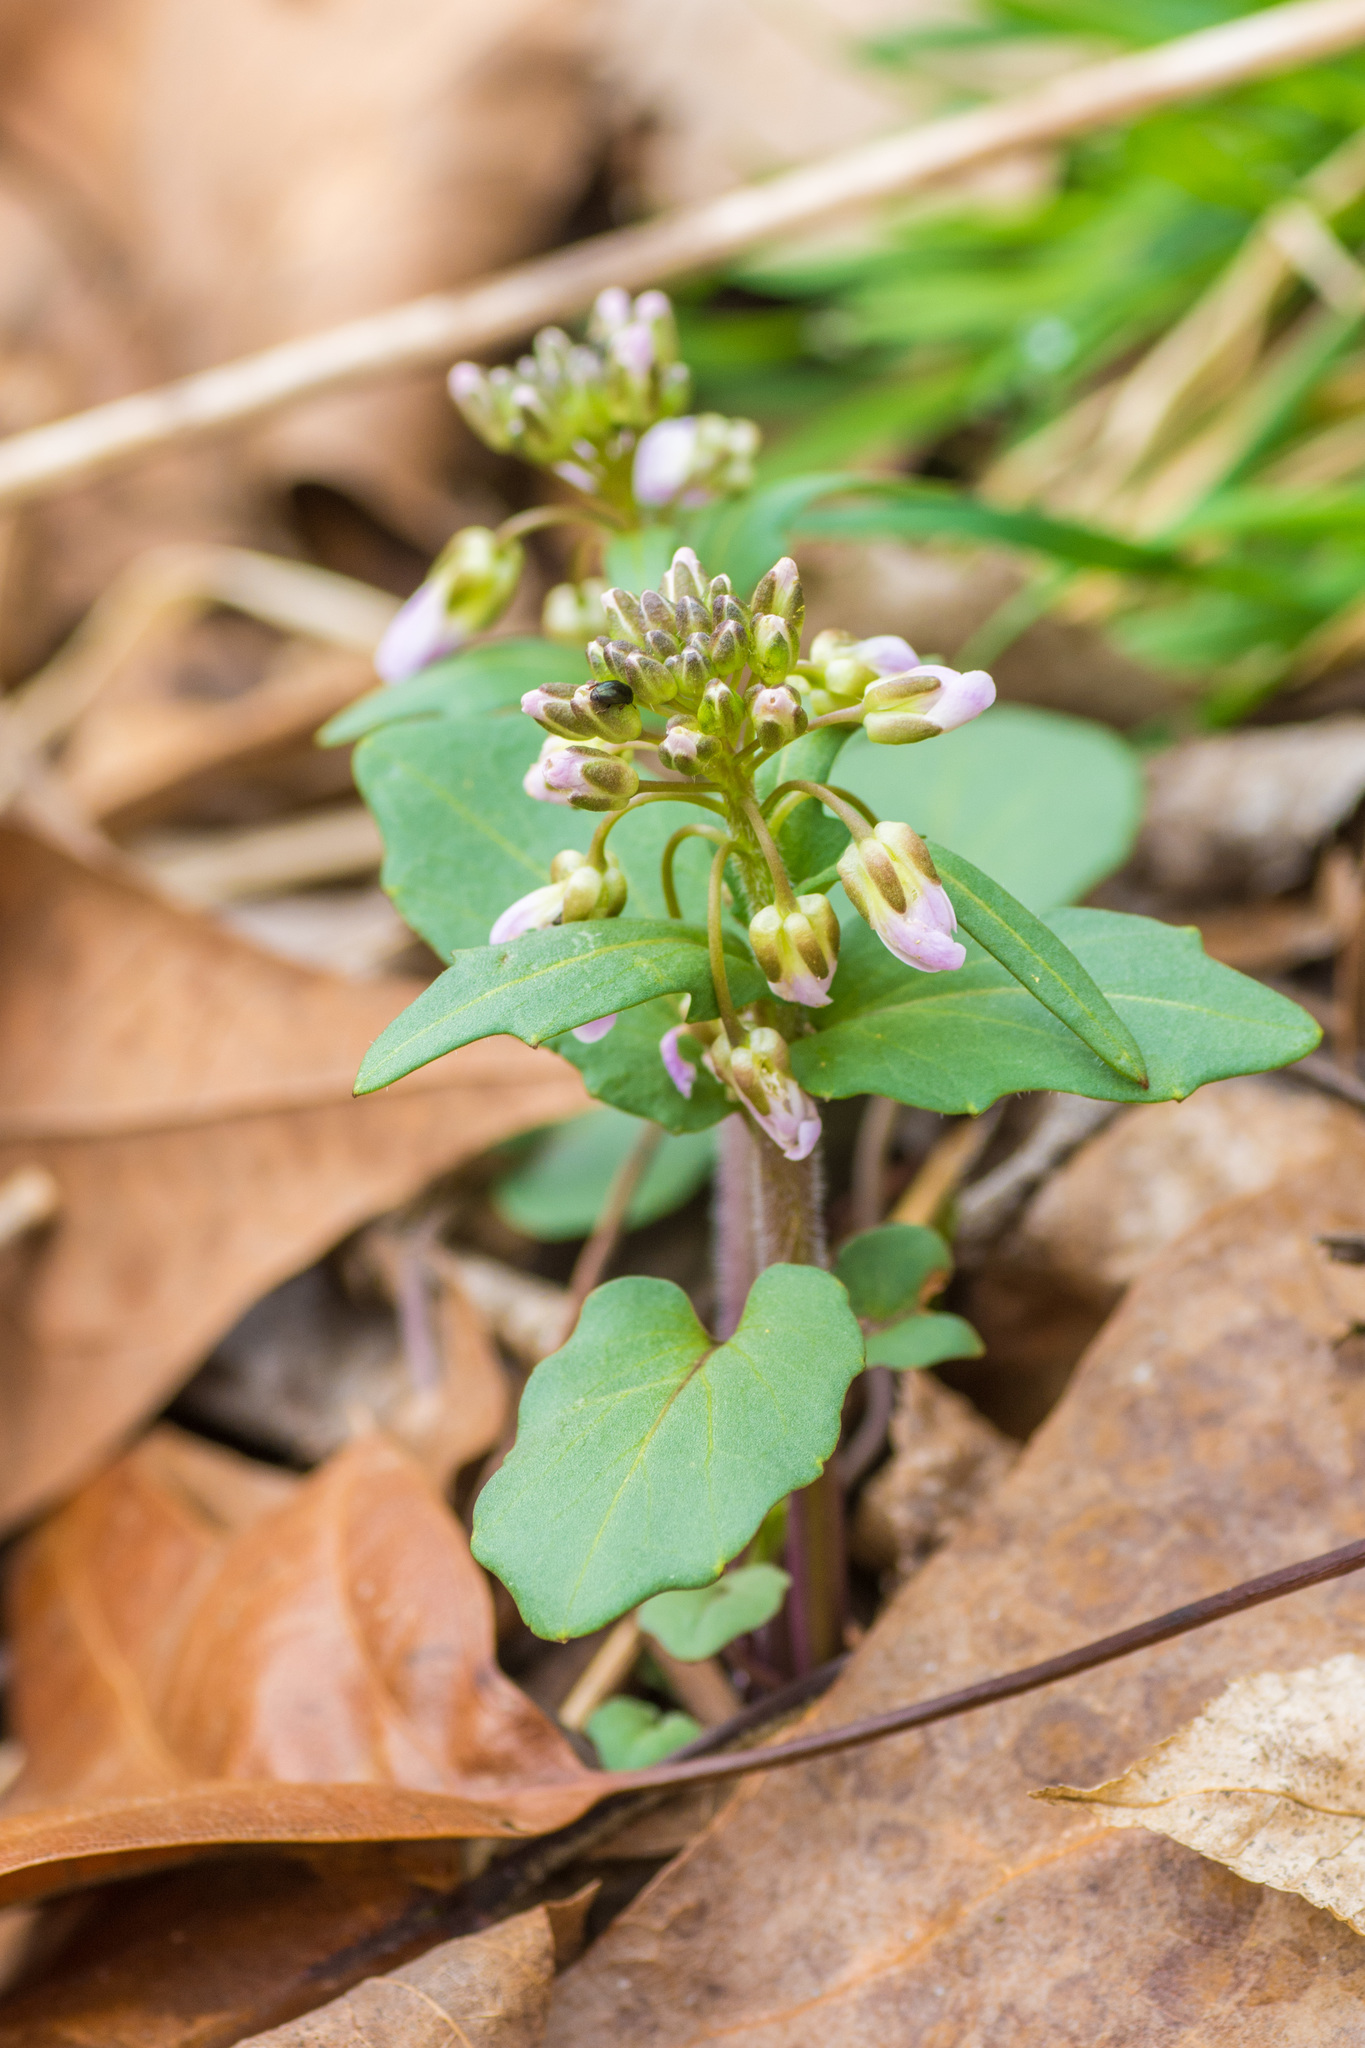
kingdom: Plantae
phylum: Tracheophyta
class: Magnoliopsida
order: Brassicales
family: Brassicaceae
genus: Cardamine
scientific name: Cardamine douglassii
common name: Purple cress
